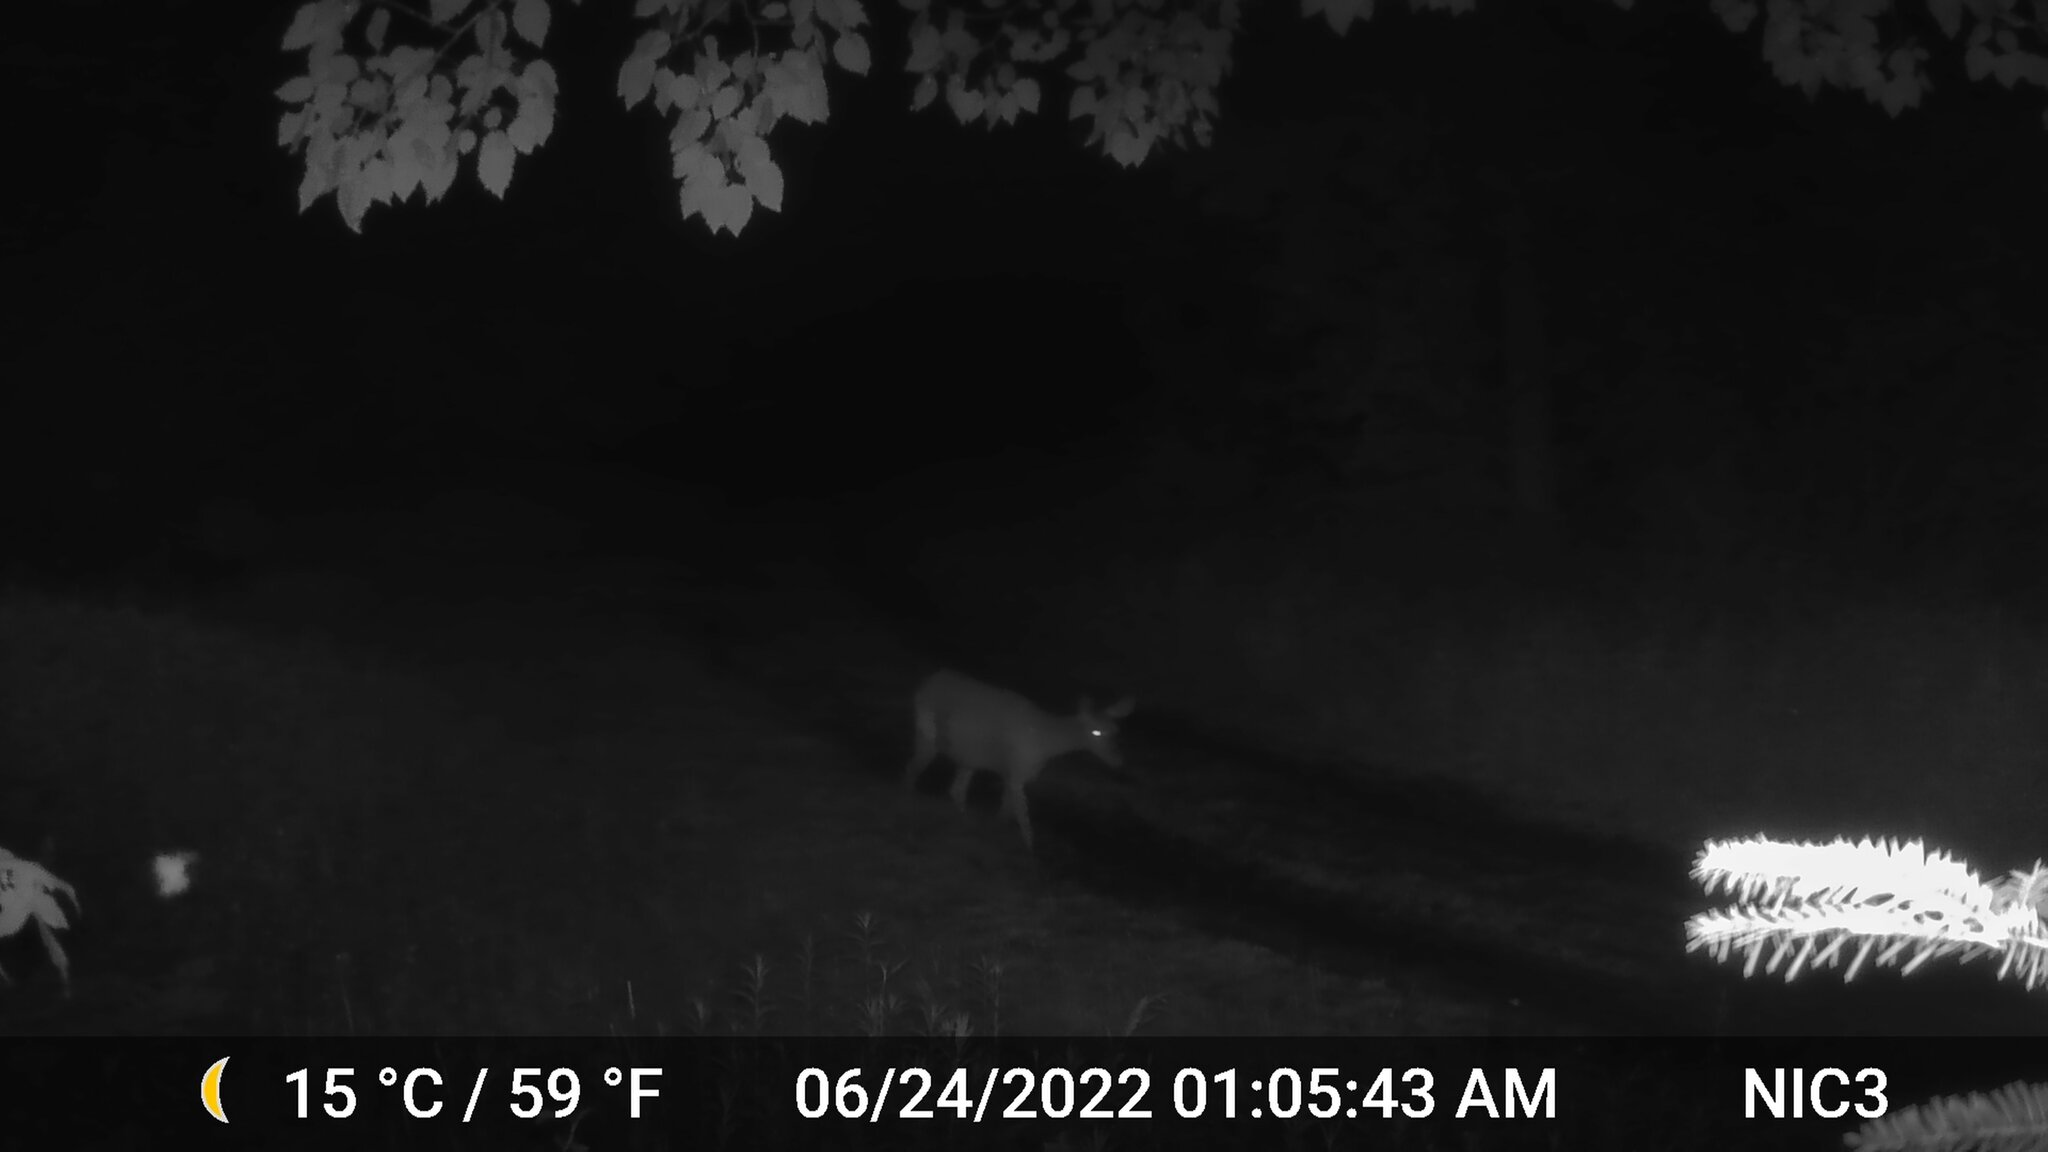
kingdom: Animalia
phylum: Chordata
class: Mammalia
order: Artiodactyla
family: Cervidae
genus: Odocoileus
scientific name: Odocoileus virginianus
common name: White-tailed deer
